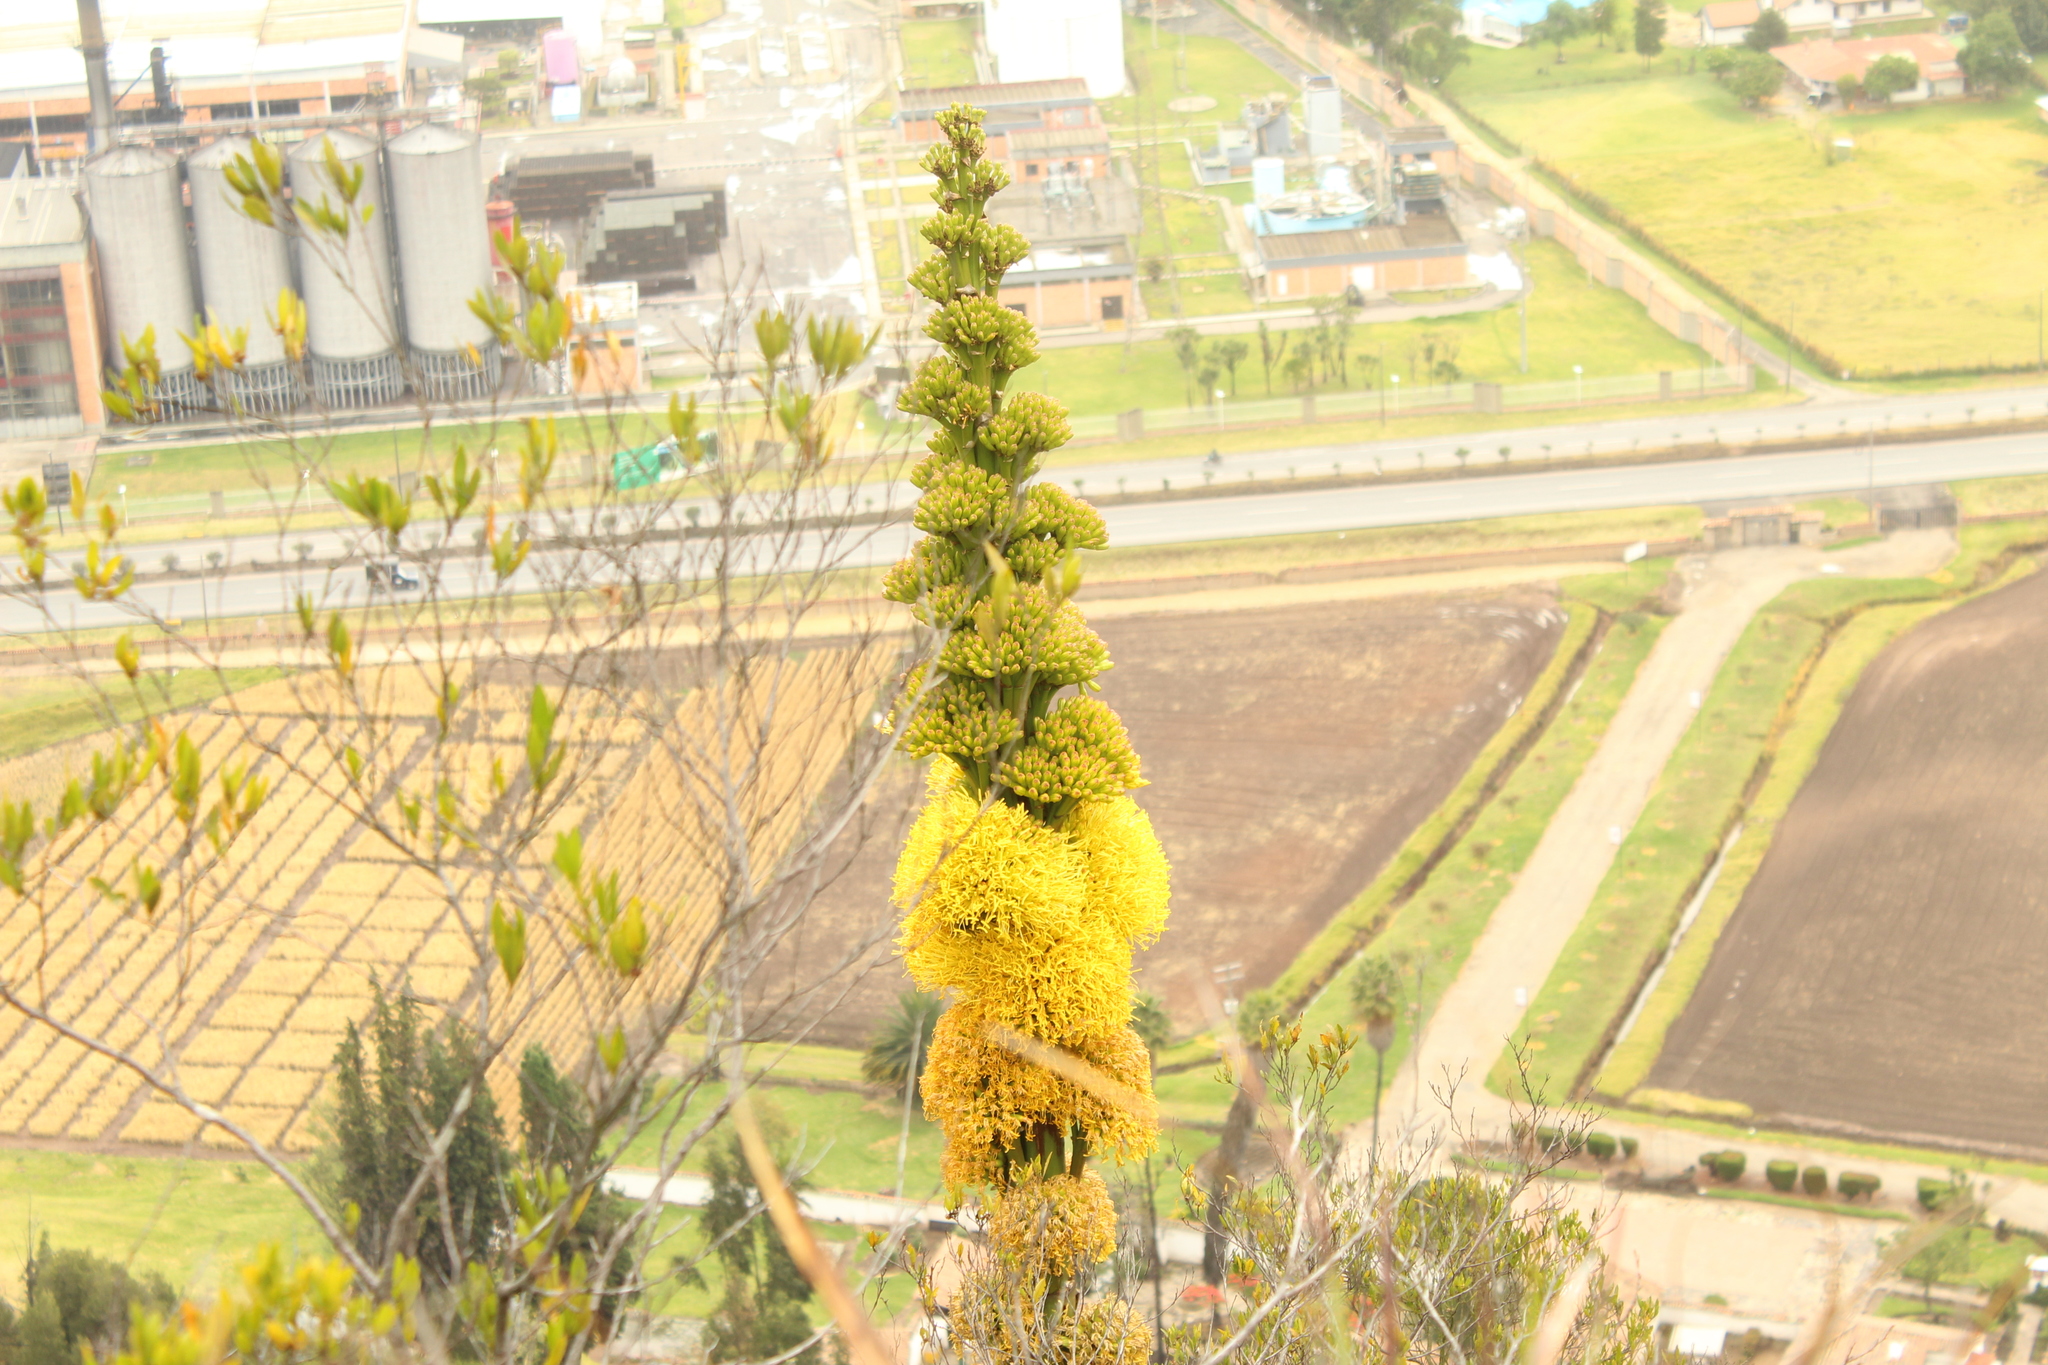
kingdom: Plantae
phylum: Tracheophyta
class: Liliopsida
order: Asparagales
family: Asparagaceae
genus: Agave
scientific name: Agave sylvesteriana
